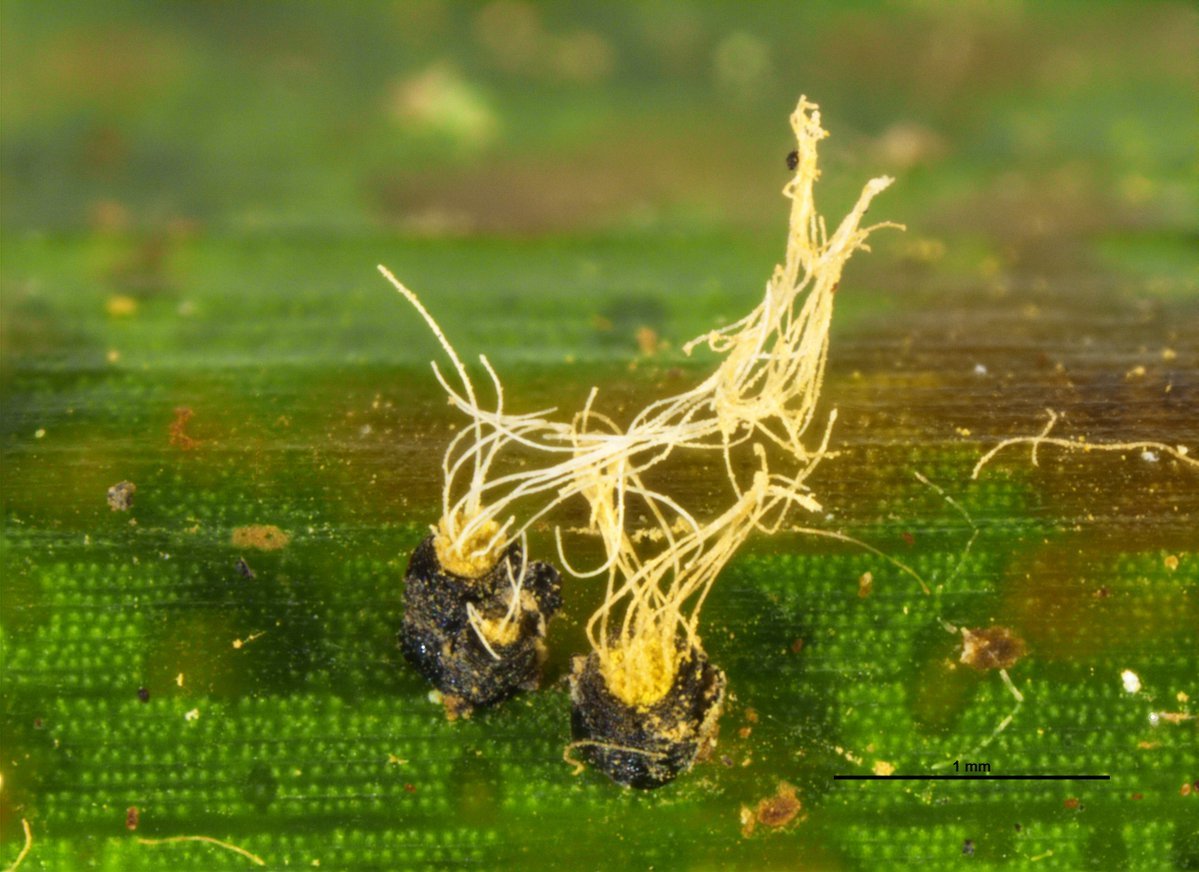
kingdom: Fungi
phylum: Basidiomycota
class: Exobasidiomycetes
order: Exobasidiales
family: Graphiolaceae
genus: Graphiola
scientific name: Graphiola phoenicis
